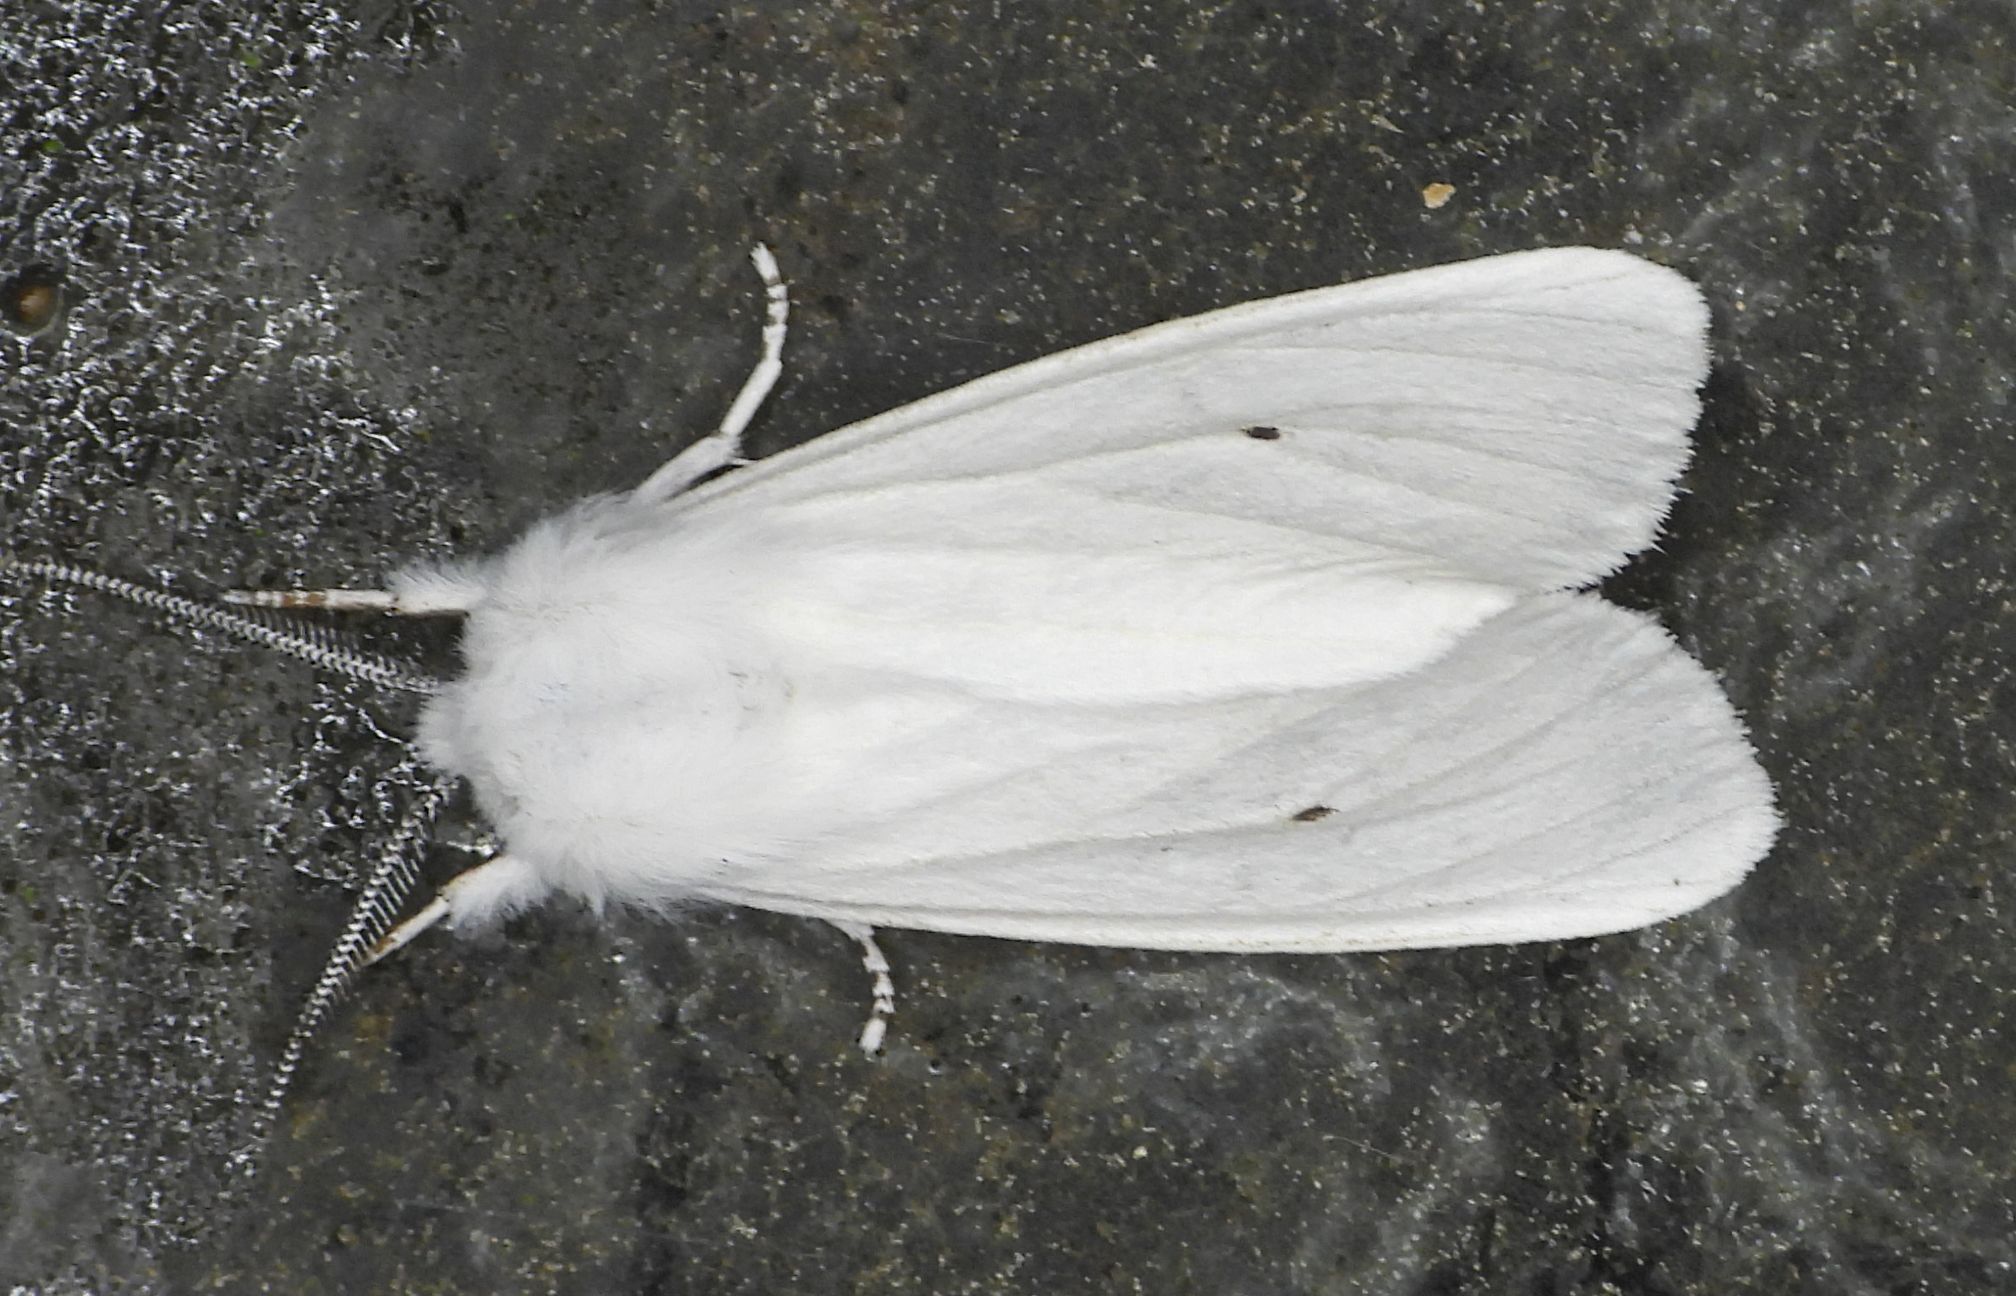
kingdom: Animalia
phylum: Arthropoda
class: Insecta
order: Lepidoptera
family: Erebidae
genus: Spilosoma
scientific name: Spilosoma virginica
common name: Virginia tiger moth
